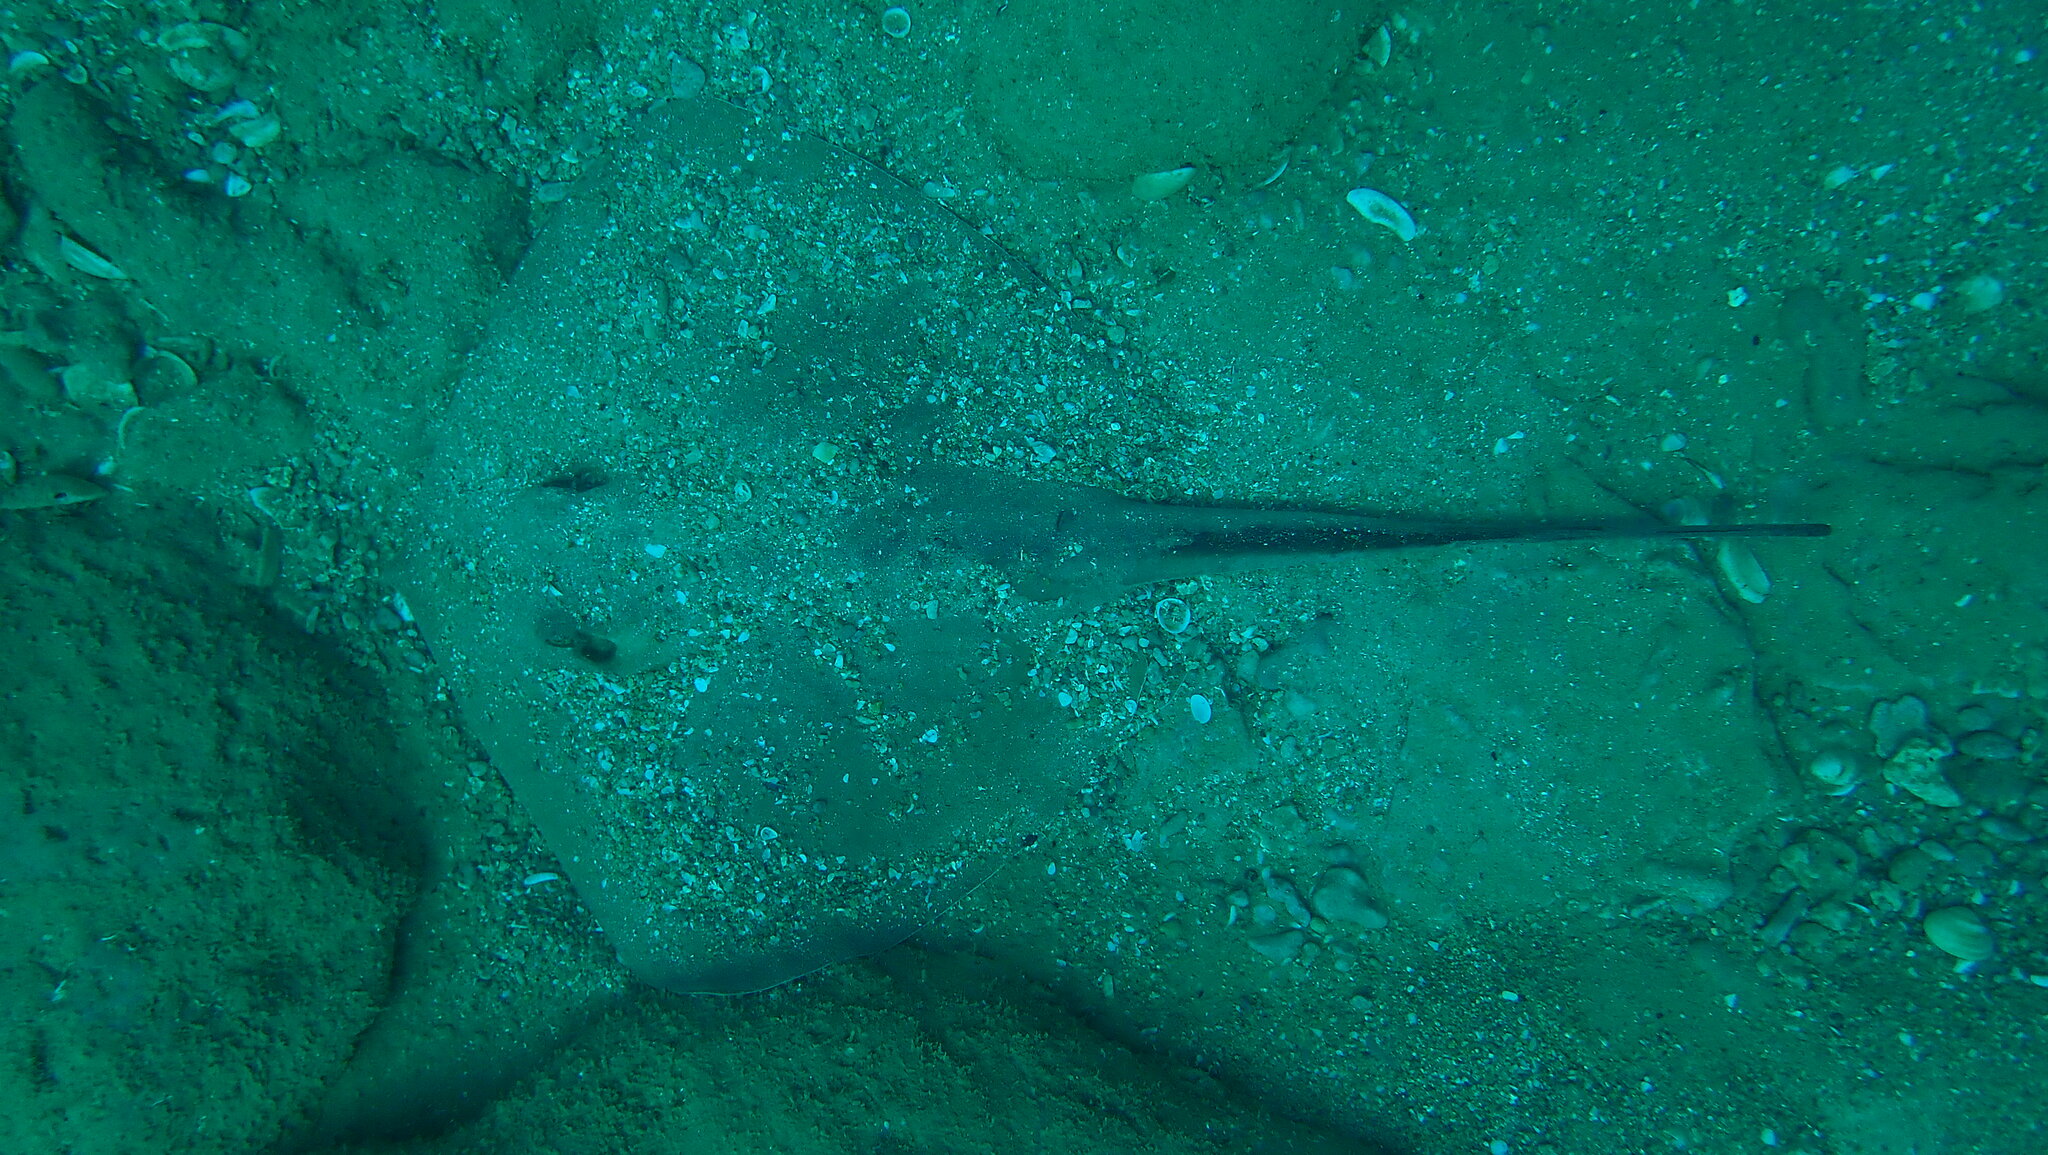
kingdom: Animalia
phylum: Chordata
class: Elasmobranchii
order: Myliobatiformes
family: Dasyatidae
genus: Dasyatis
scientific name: Dasyatis pastinaca
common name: Common stingray
